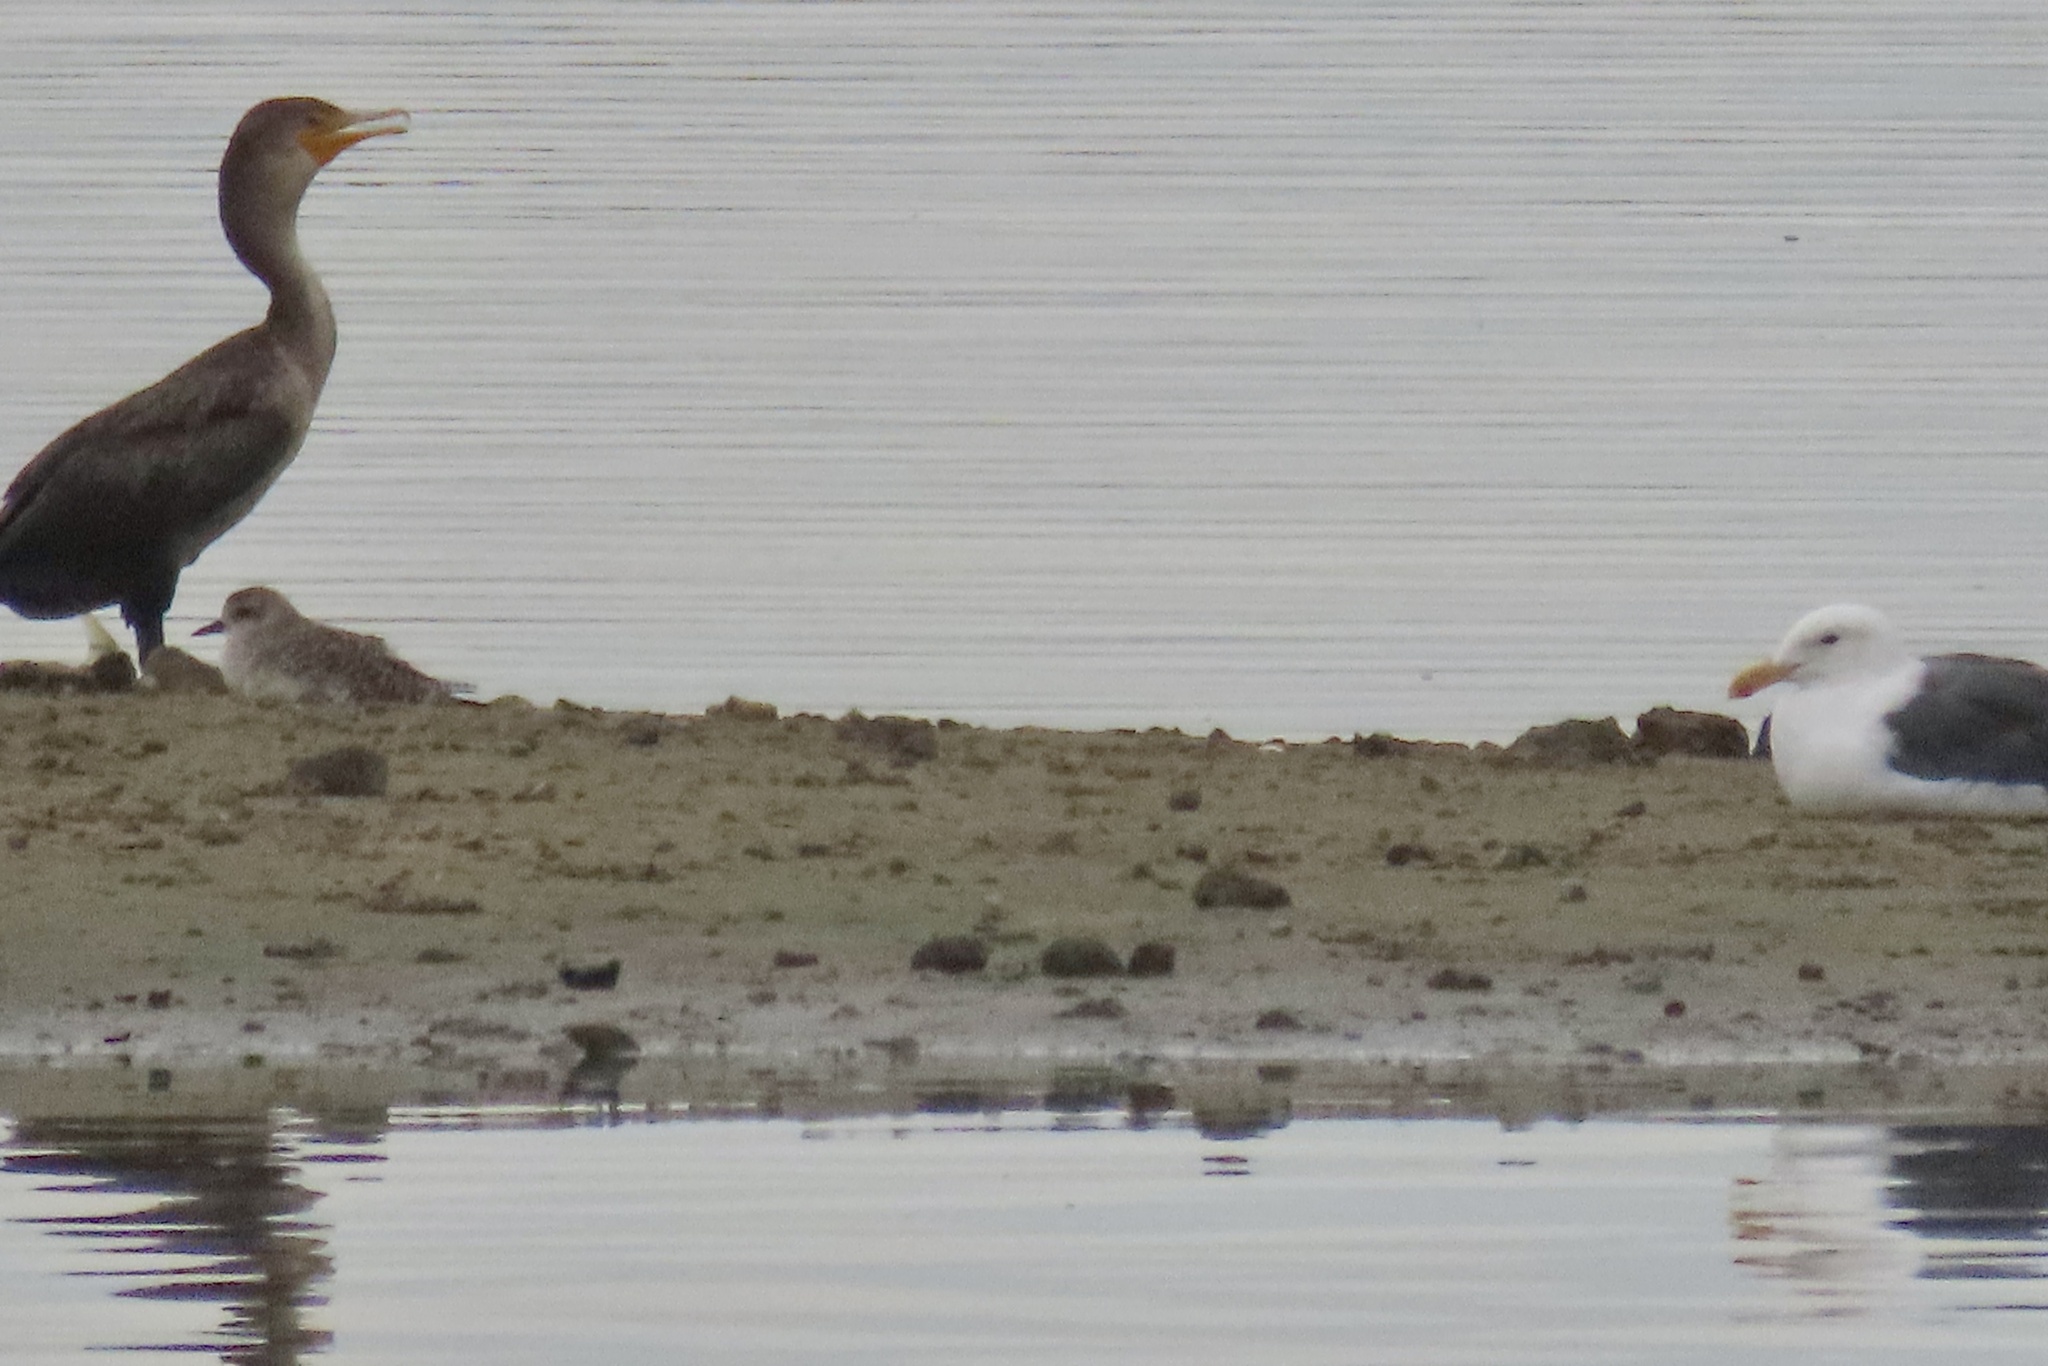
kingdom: Animalia
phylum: Chordata
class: Aves
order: Charadriiformes
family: Charadriidae
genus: Pluvialis
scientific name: Pluvialis squatarola
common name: Grey plover
